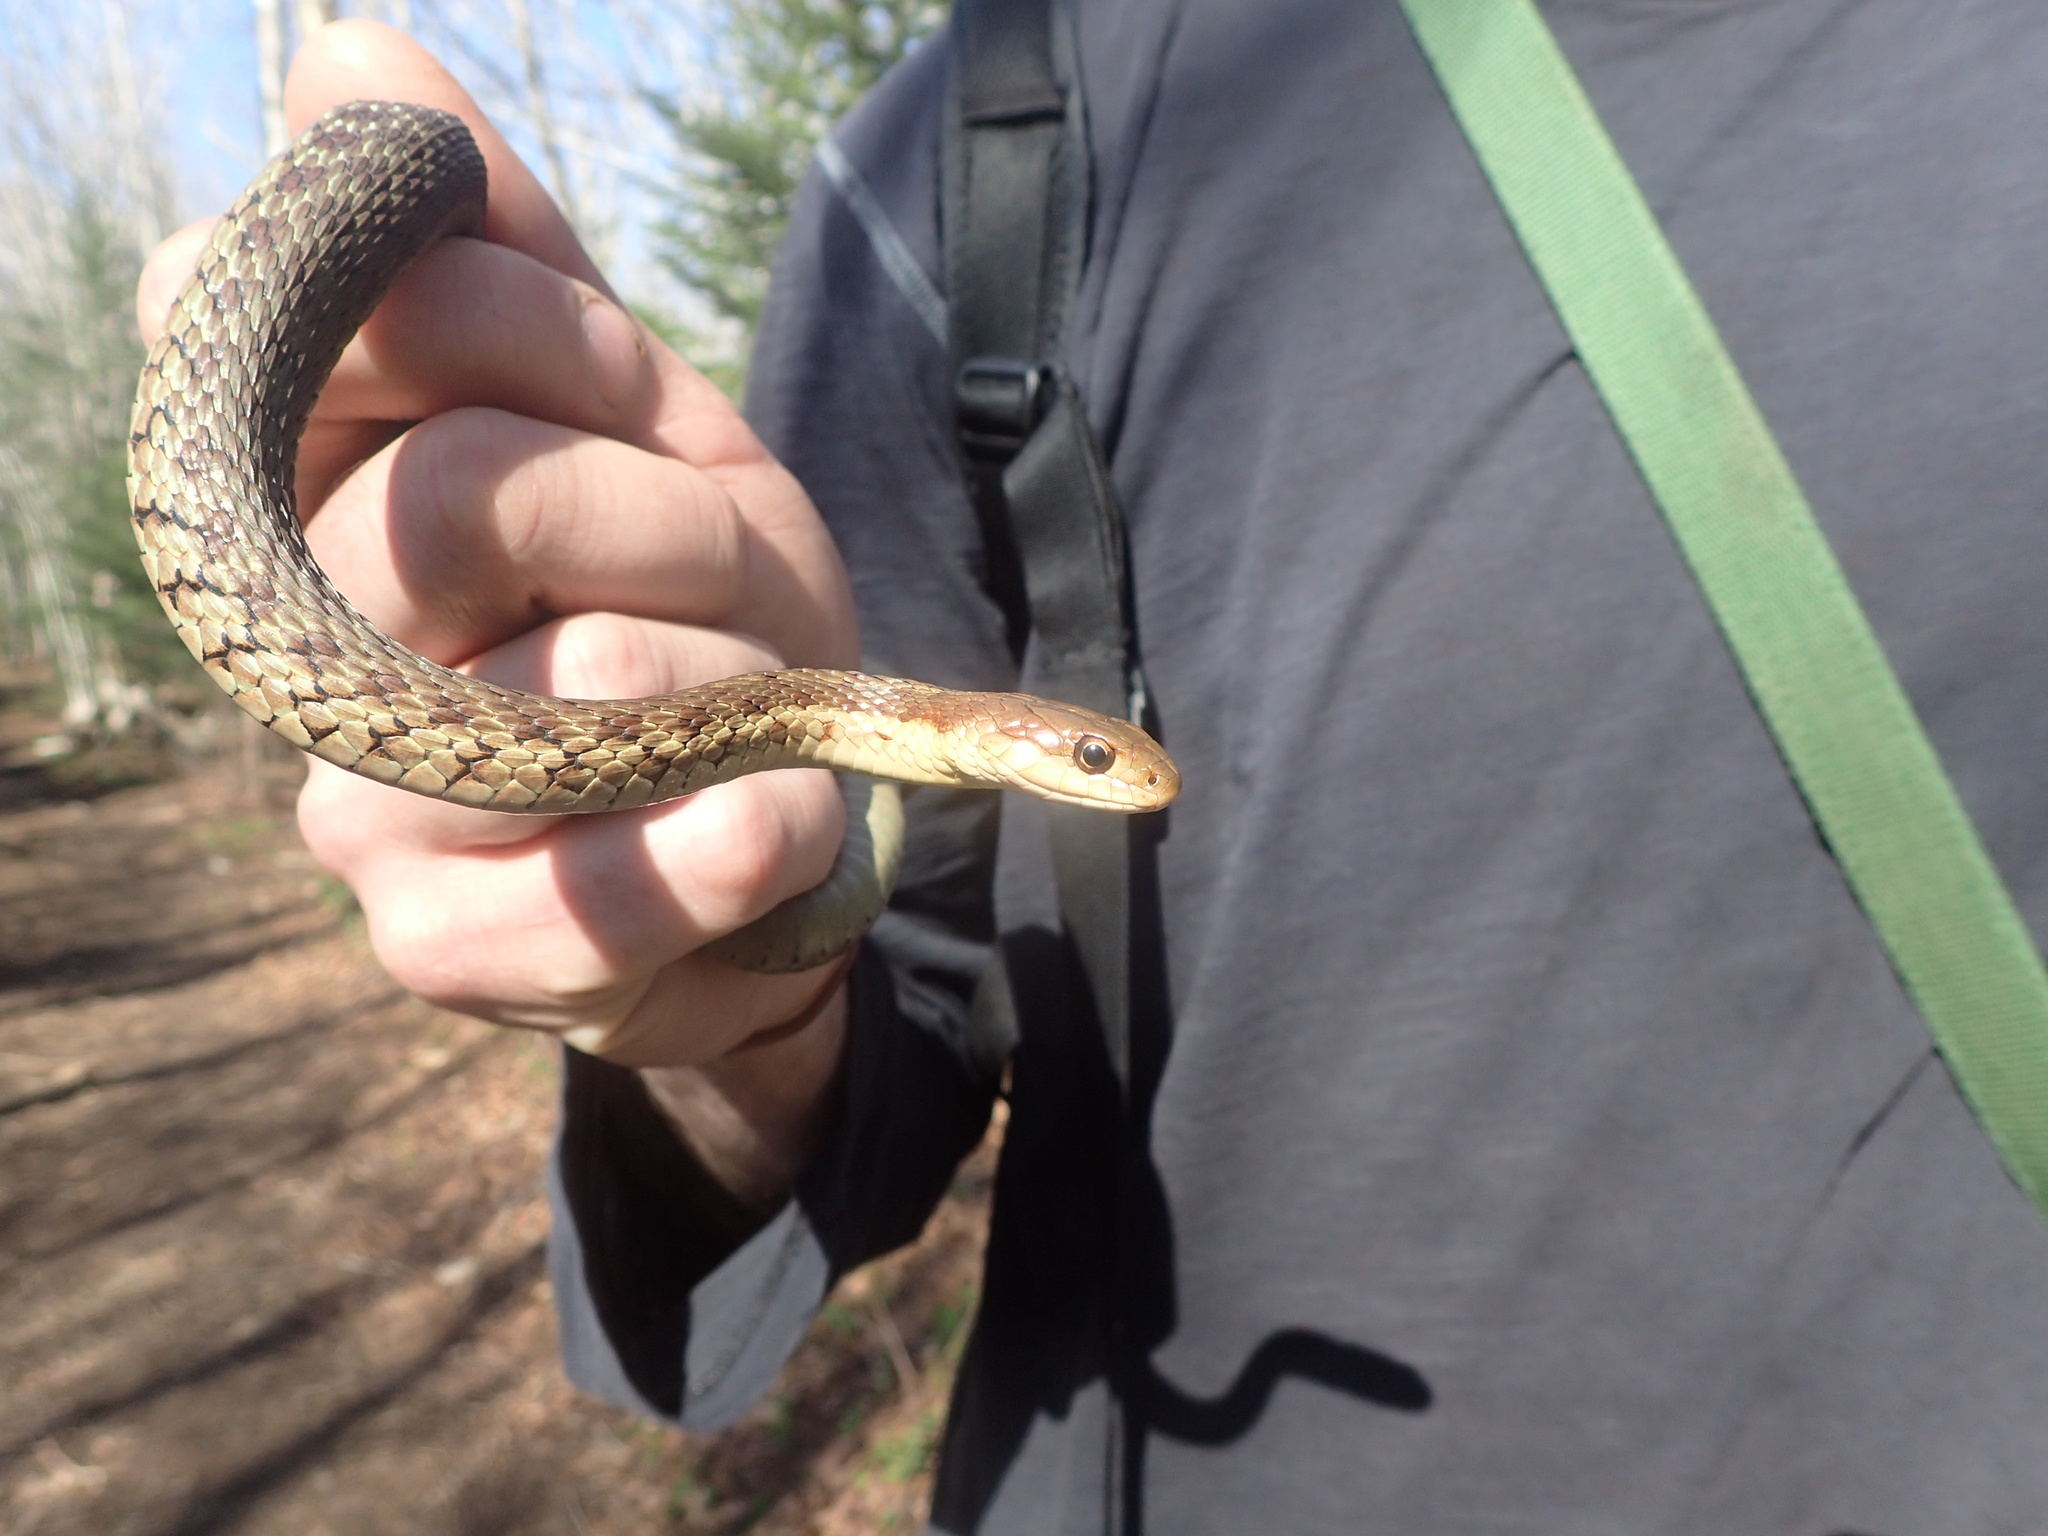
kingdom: Animalia
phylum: Chordata
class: Squamata
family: Colubridae
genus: Thamnophis
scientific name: Thamnophis sirtalis
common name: Common garter snake
